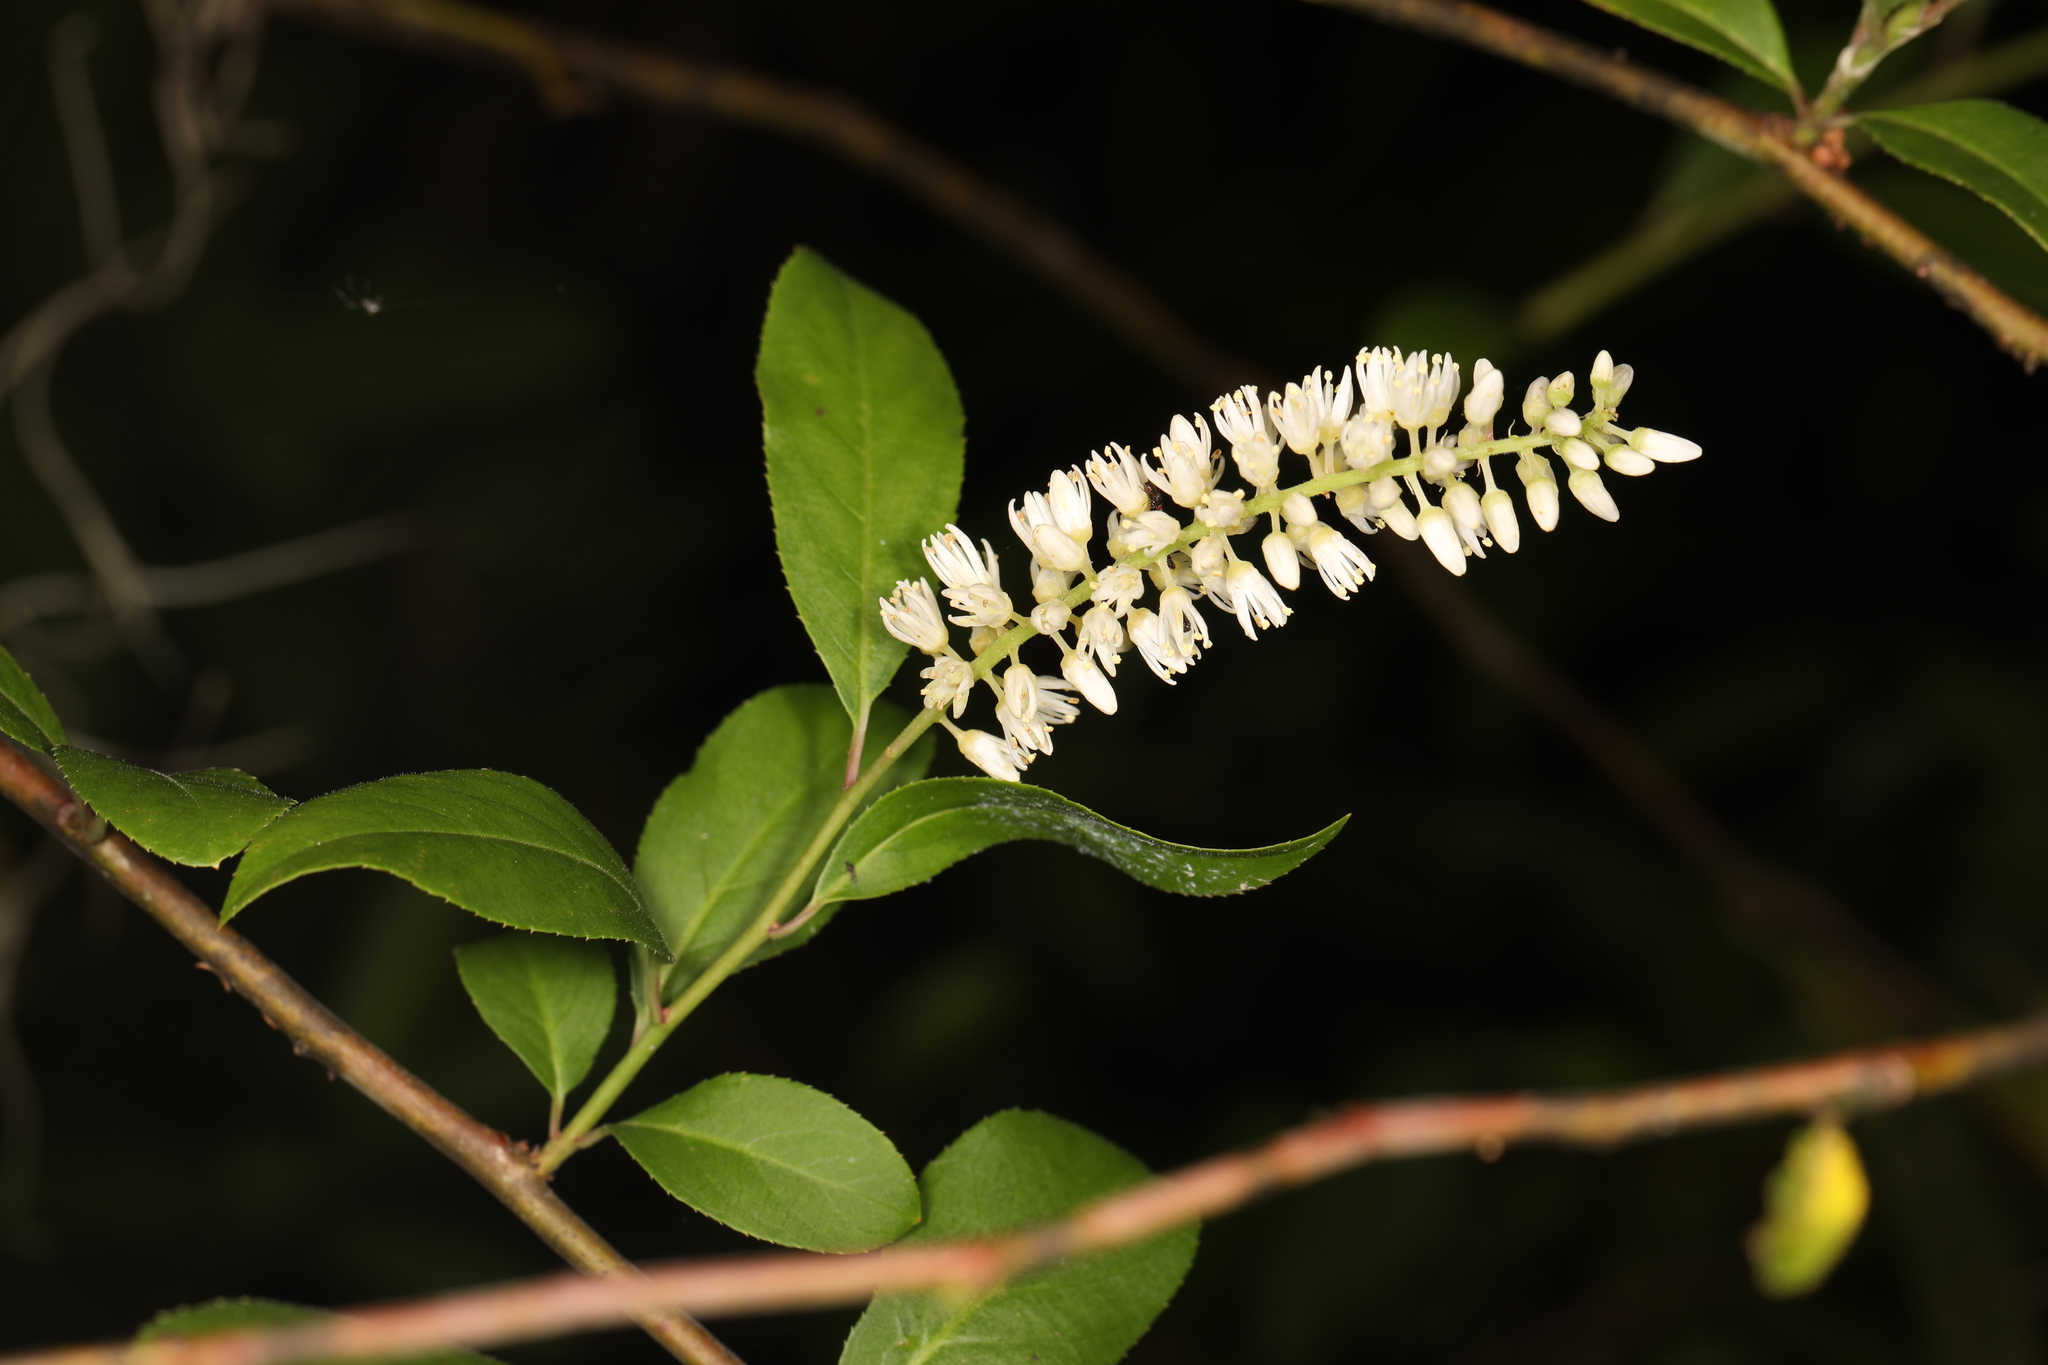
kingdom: Plantae
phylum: Tracheophyta
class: Magnoliopsida
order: Saxifragales
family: Iteaceae
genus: Itea
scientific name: Itea virginica
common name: Sweetspire
